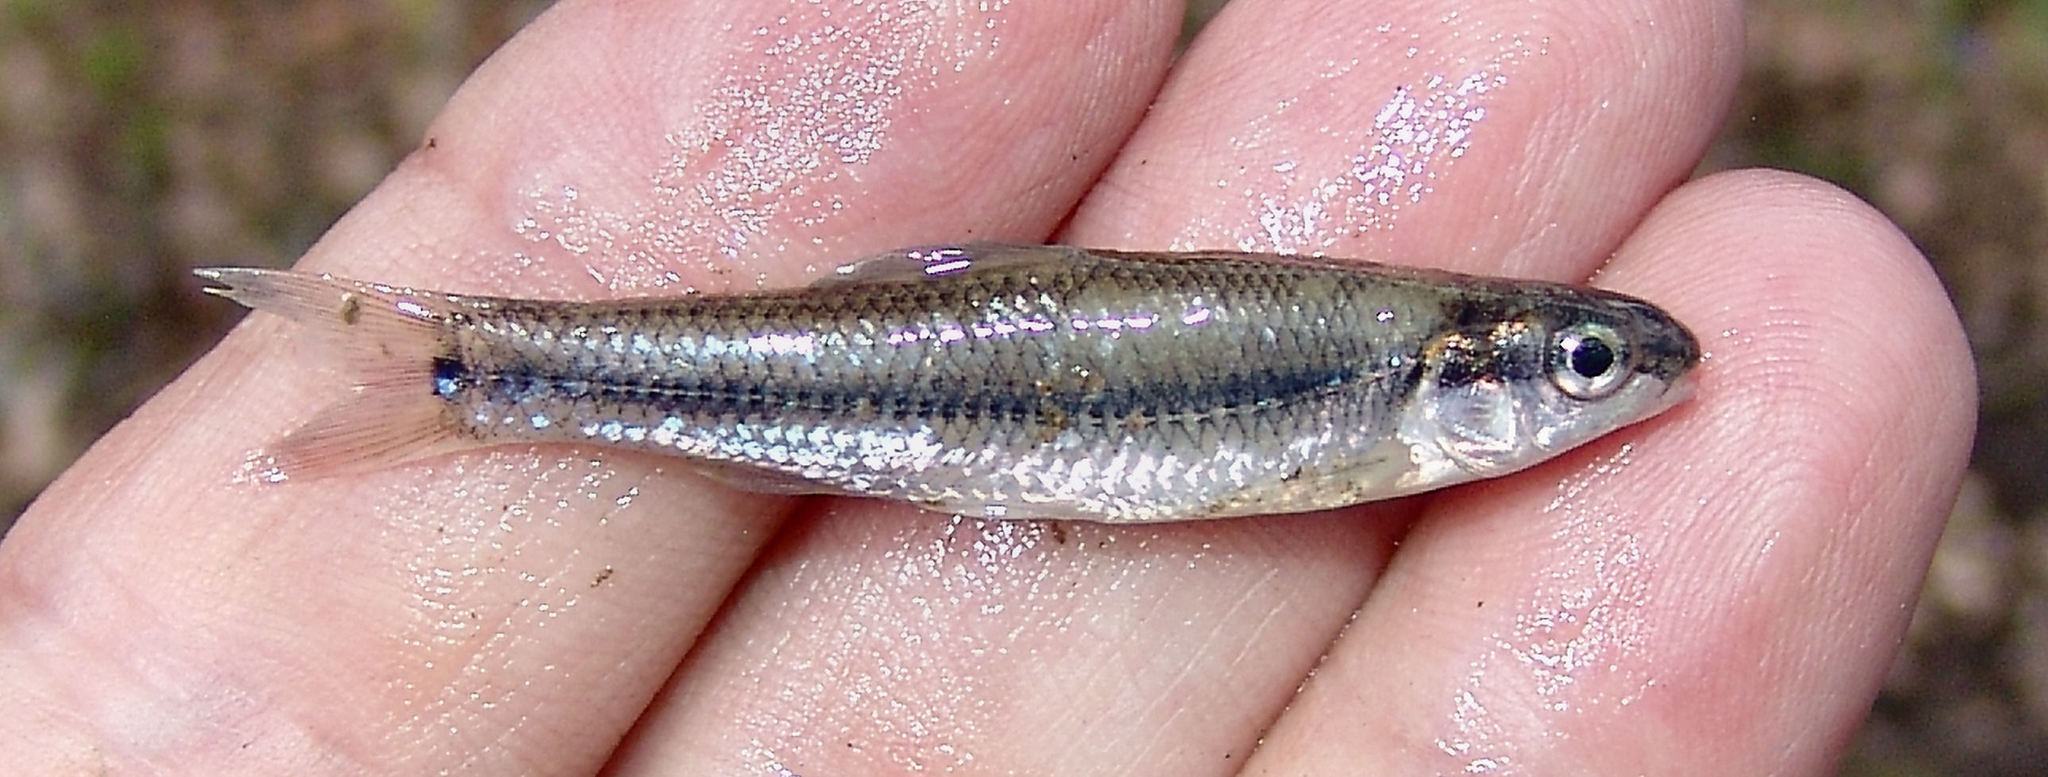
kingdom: Animalia
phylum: Chordata
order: Cypriniformes
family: Cyprinidae
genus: Pimephales
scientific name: Pimephales notatus
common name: Bluntnose minnow
